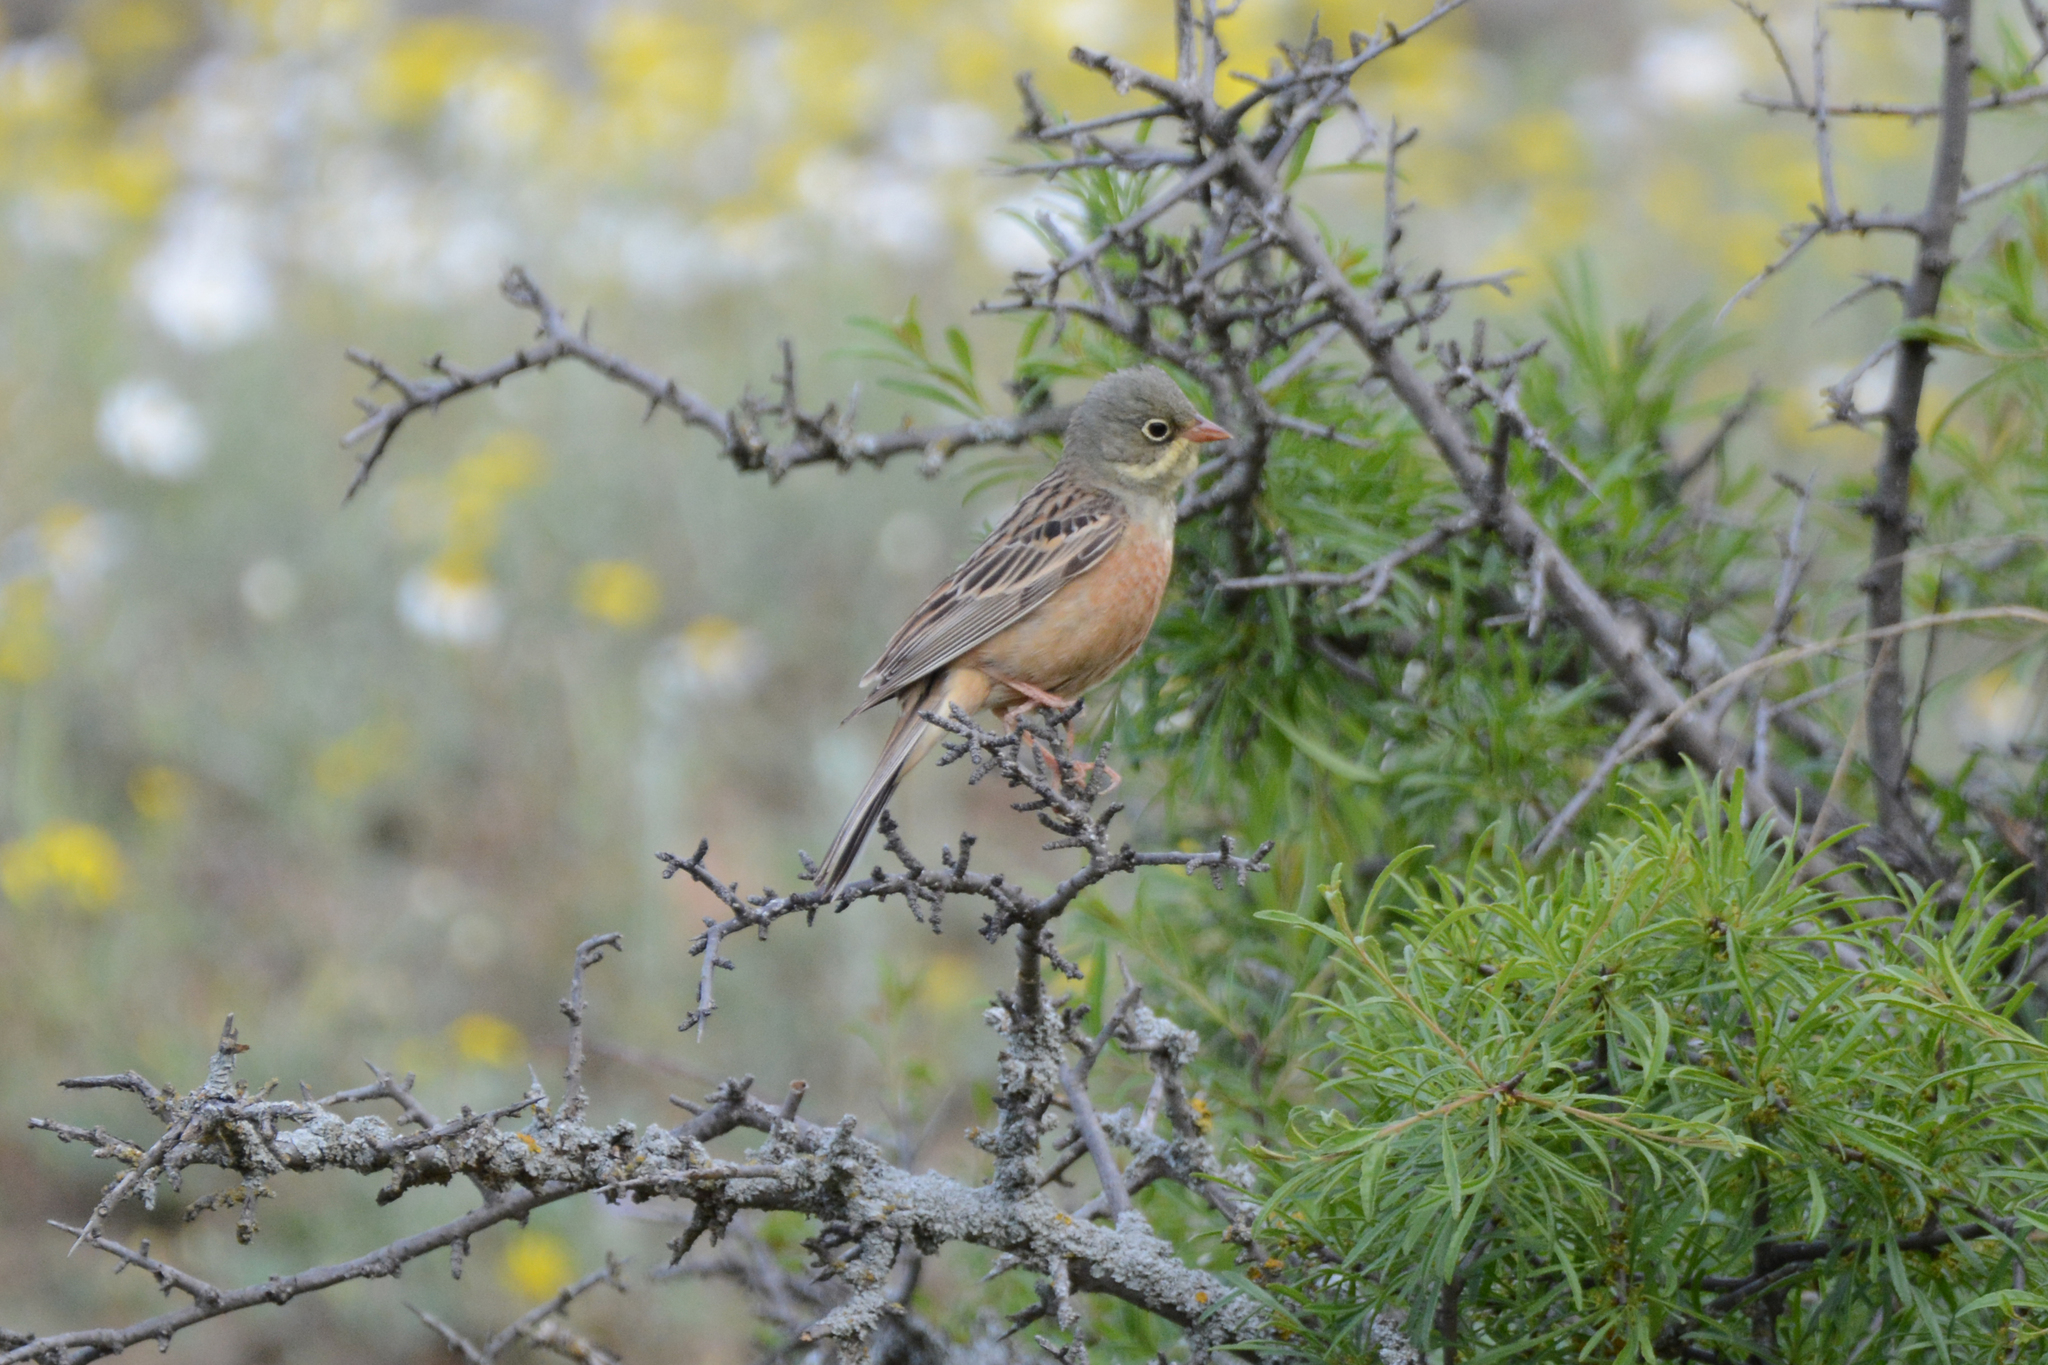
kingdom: Animalia
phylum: Chordata
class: Aves
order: Passeriformes
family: Emberizidae
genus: Emberiza
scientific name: Emberiza hortulana
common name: Ortolan bunting
